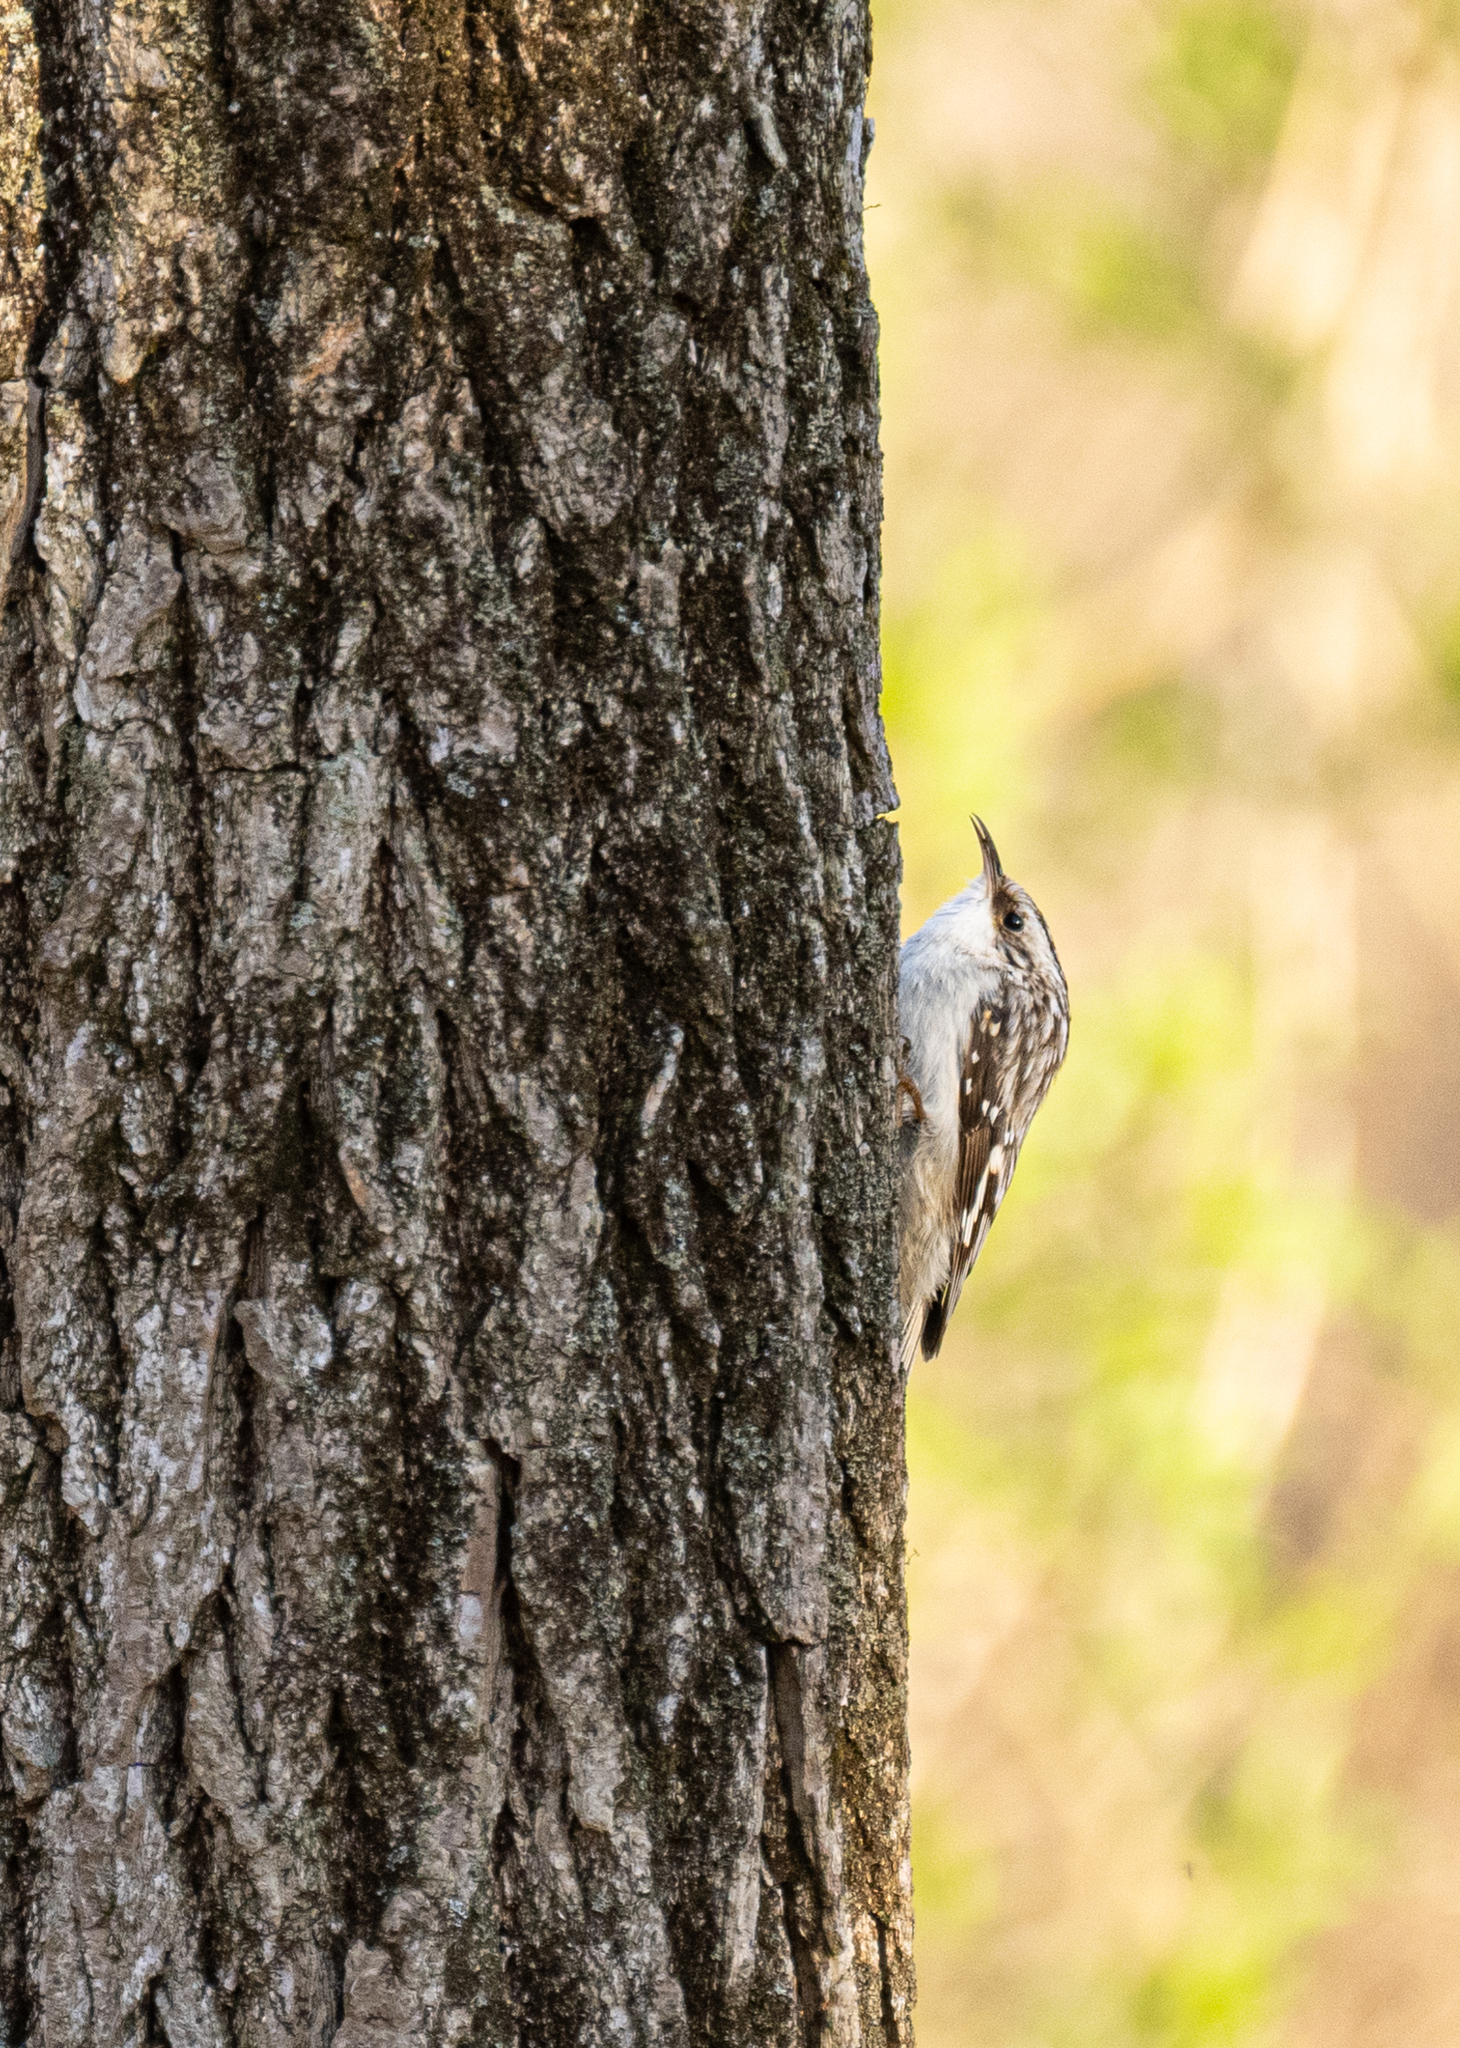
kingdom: Animalia
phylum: Chordata
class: Aves
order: Passeriformes
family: Certhiidae
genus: Certhia
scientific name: Certhia americana
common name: Brown creeper
